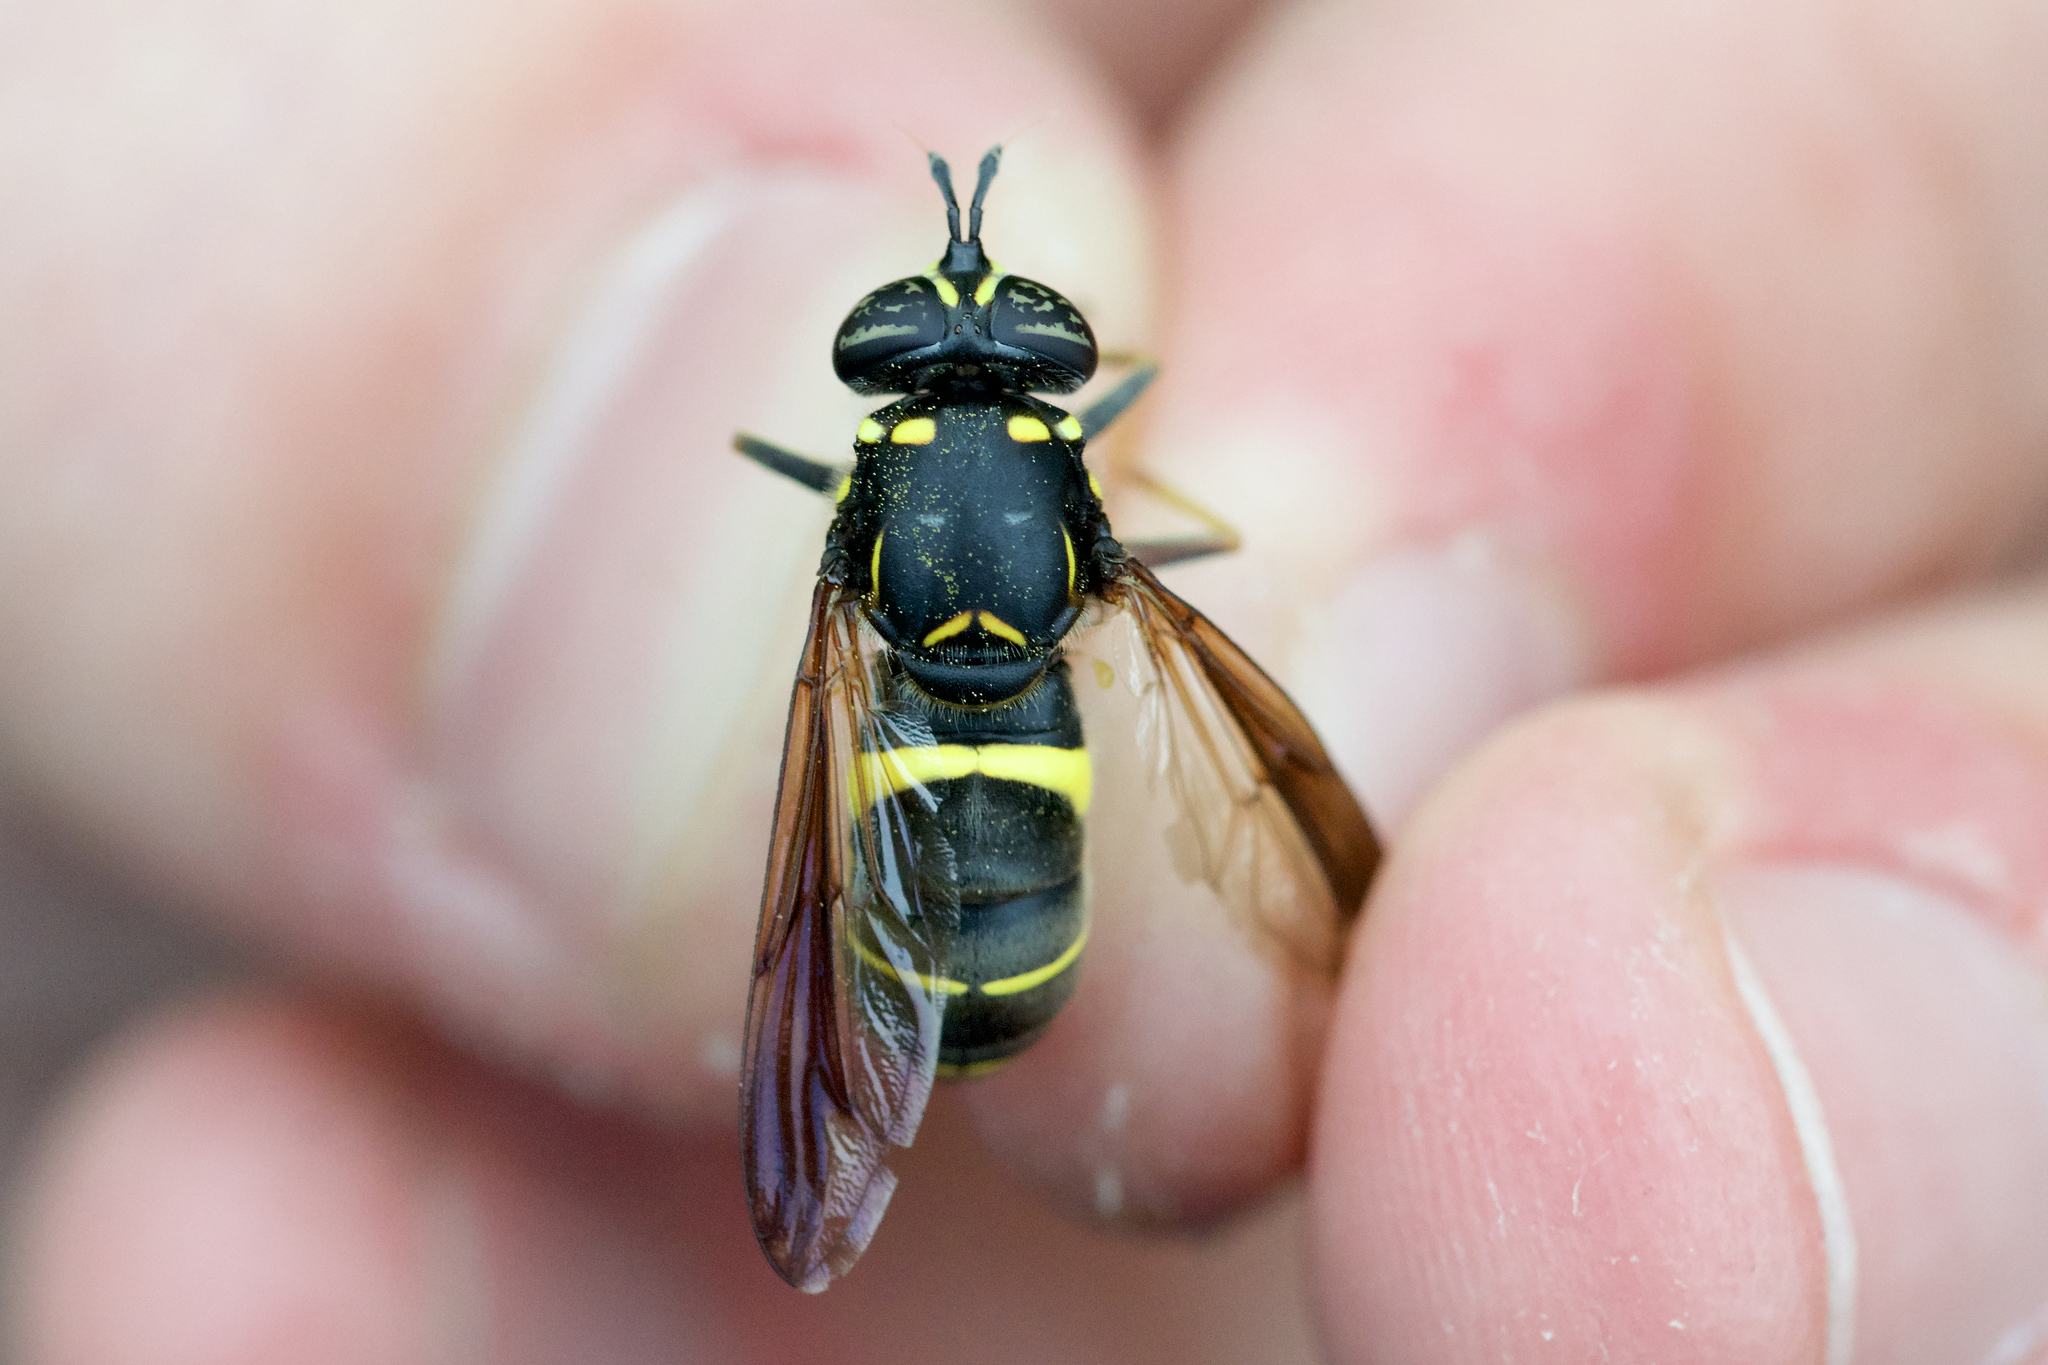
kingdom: Animalia
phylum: Arthropoda
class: Insecta
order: Diptera
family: Syrphidae
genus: Spilomyia
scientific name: Spilomyia sayi
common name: Four-lined hornet fly
